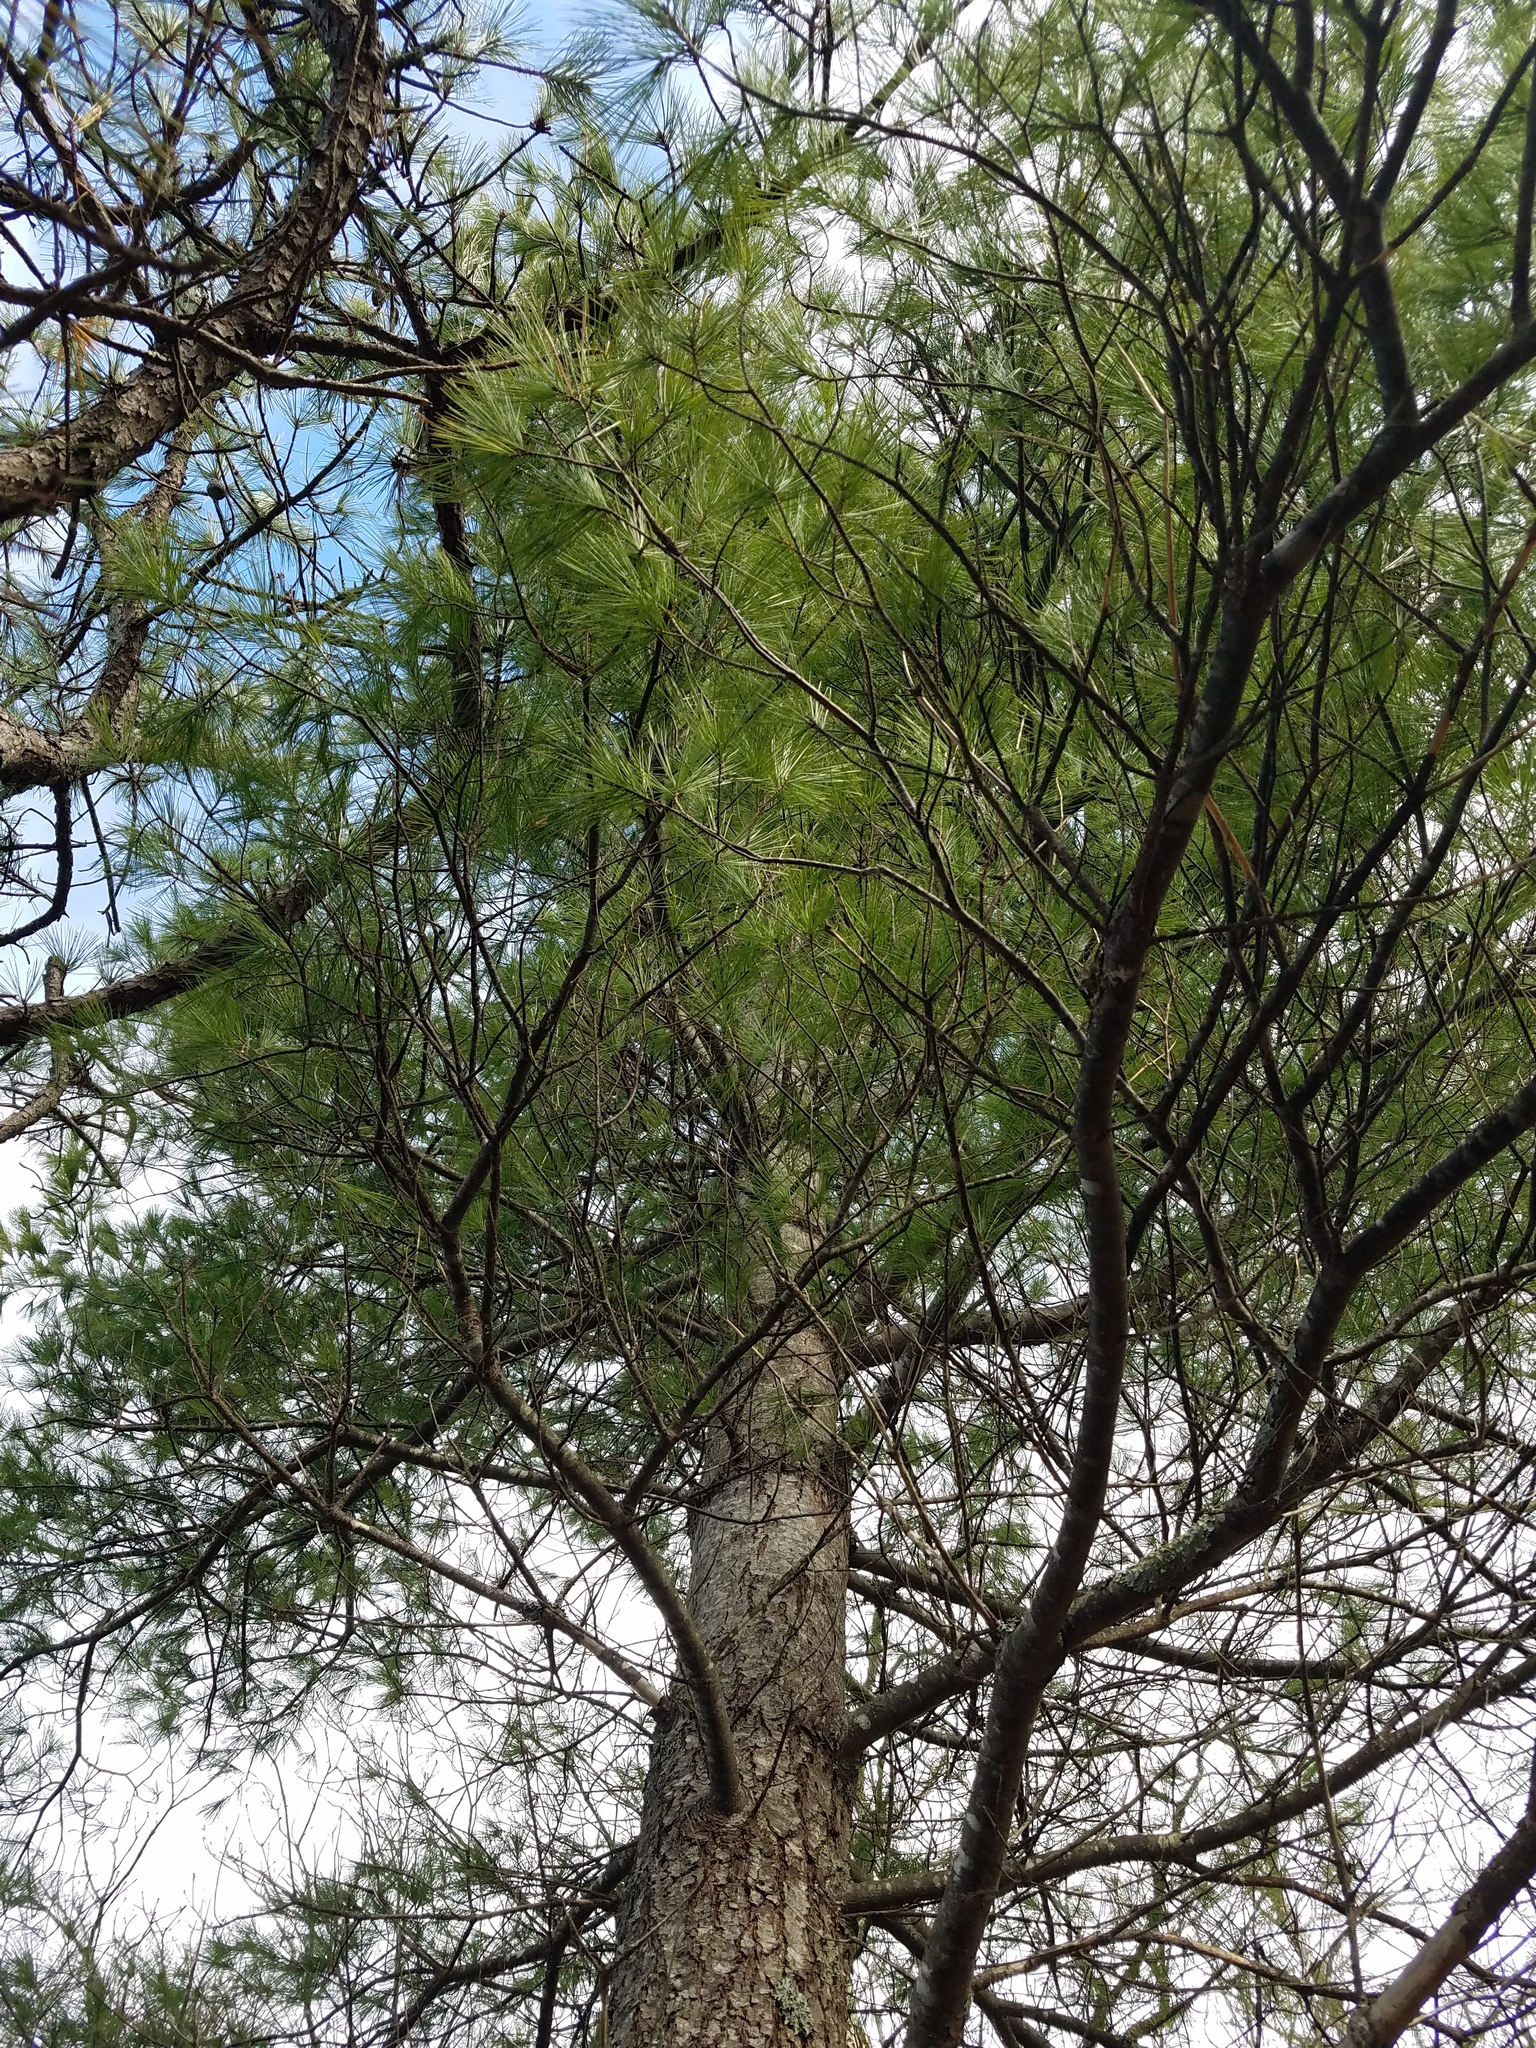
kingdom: Plantae
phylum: Tracheophyta
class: Pinopsida
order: Pinales
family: Pinaceae
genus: Pinus
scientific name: Pinus strobus
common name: Weymouth pine
